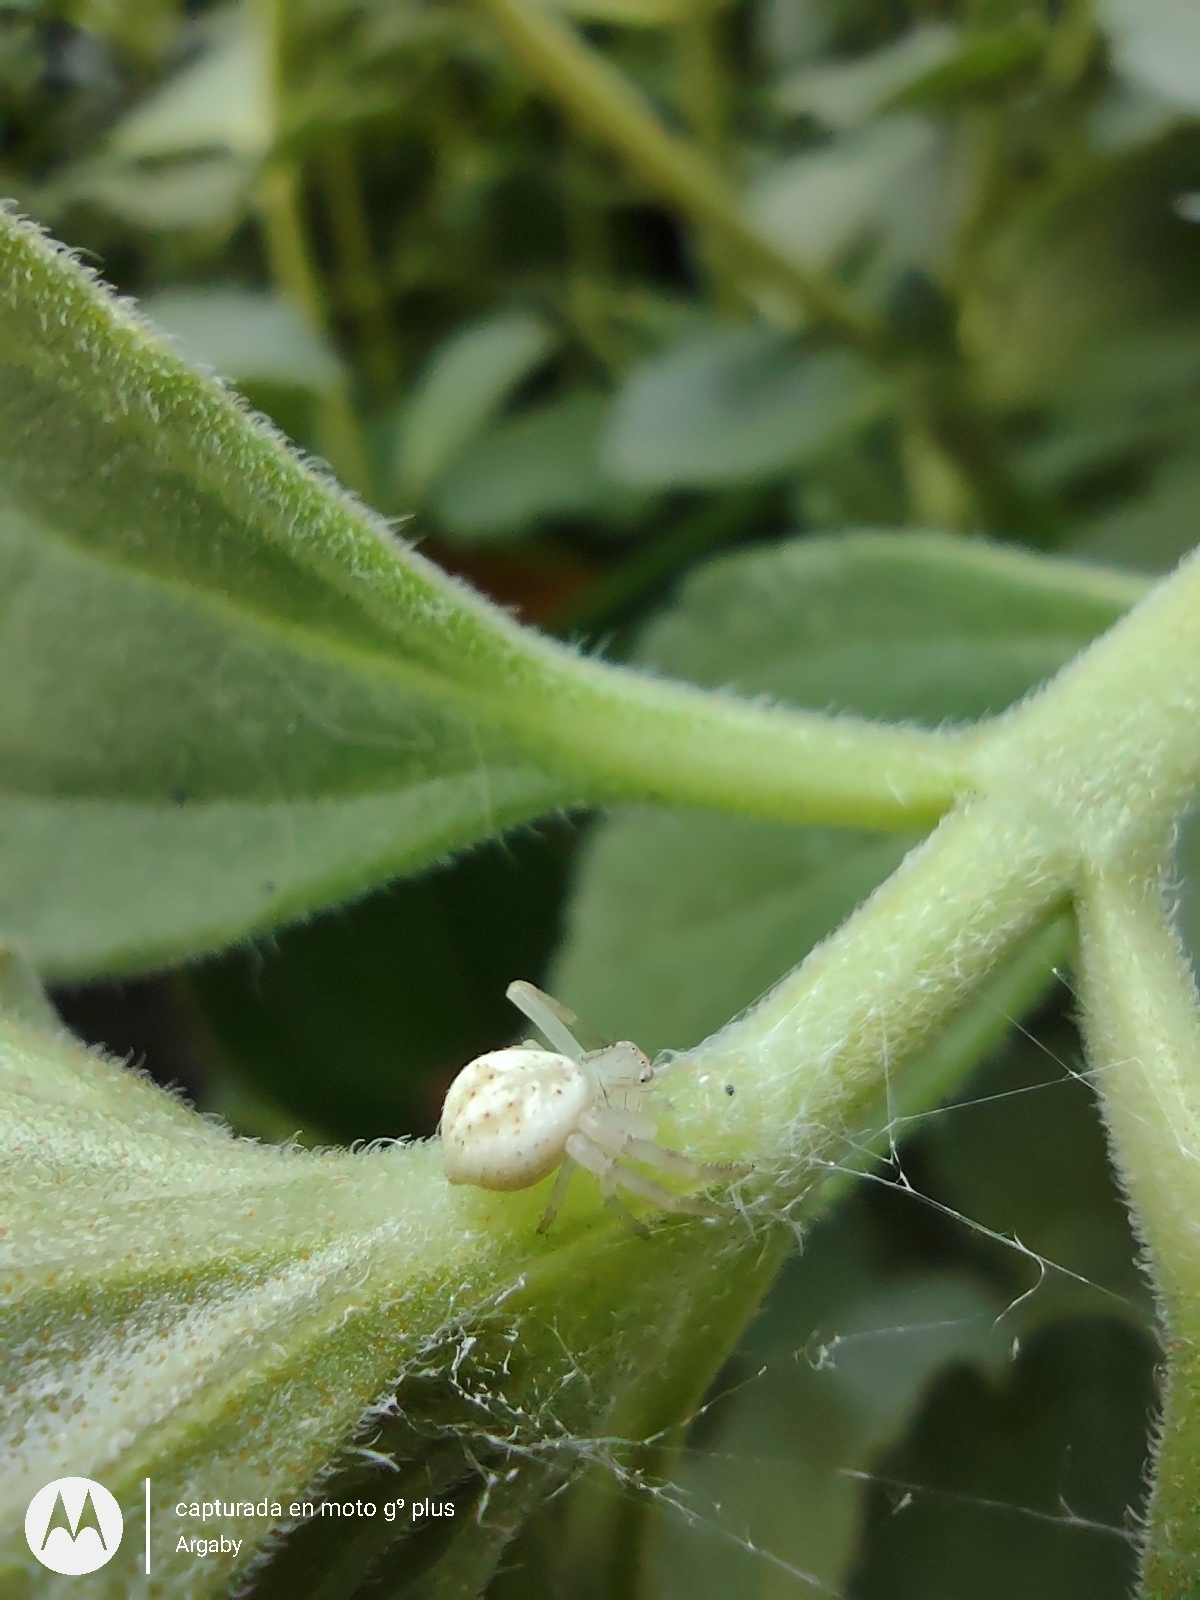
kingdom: Animalia
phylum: Arthropoda
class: Arachnida
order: Araneae
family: Thomisidae
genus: Misumenops
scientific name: Misumenops
